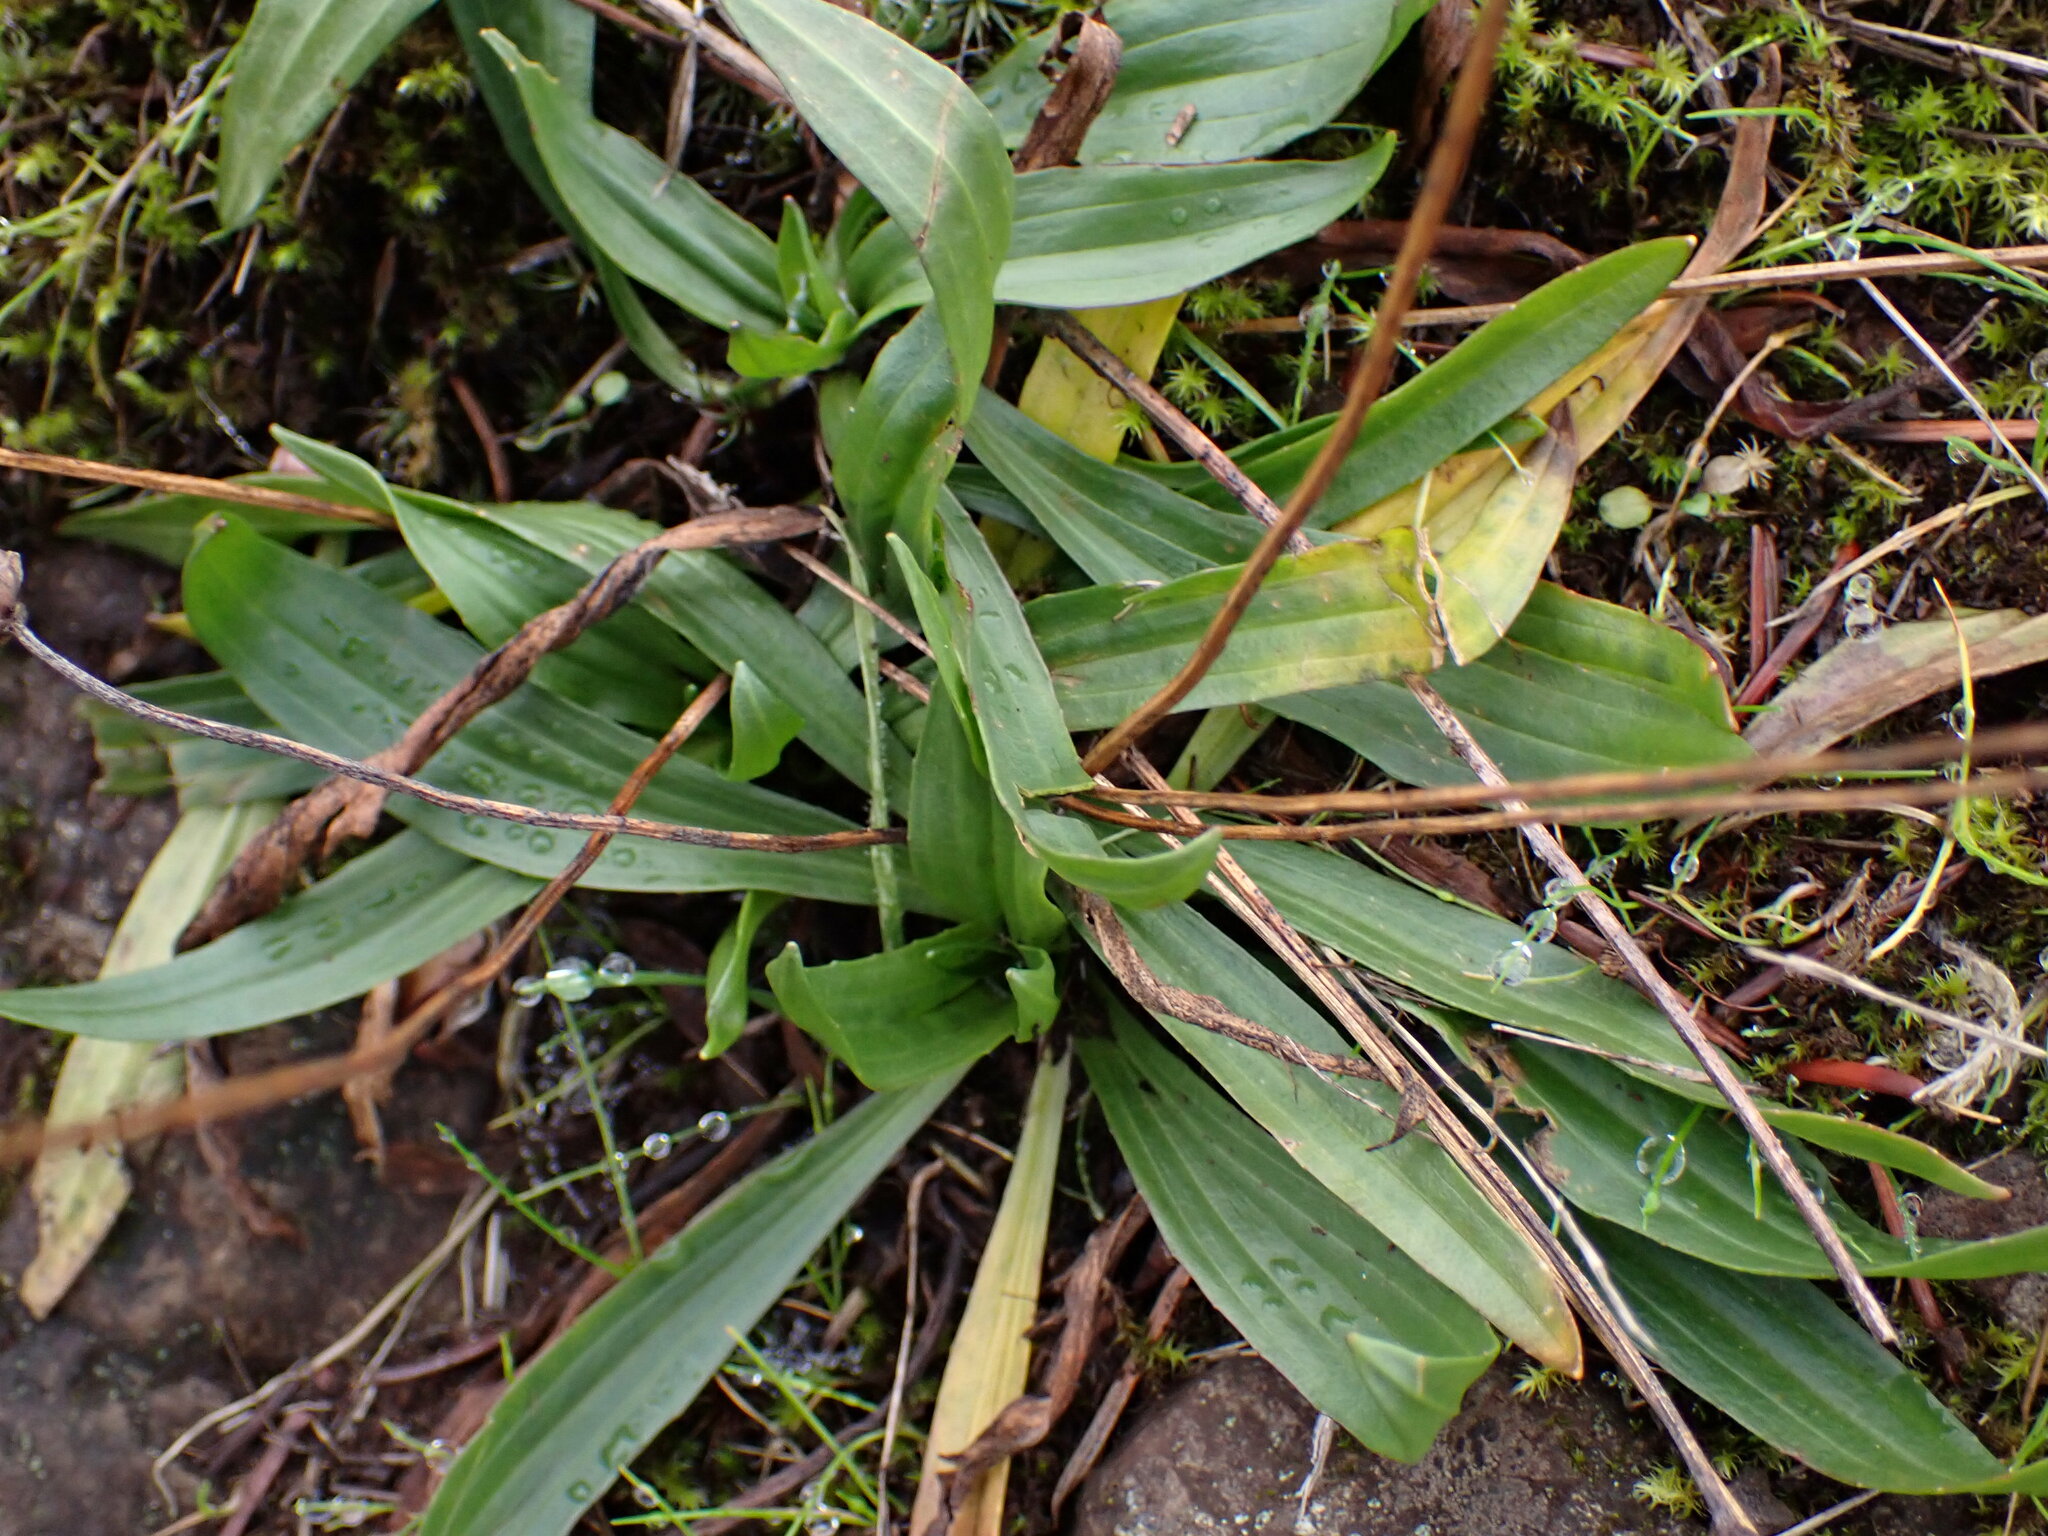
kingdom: Plantae
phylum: Tracheophyta
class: Magnoliopsida
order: Lamiales
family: Plantaginaceae
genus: Plantago
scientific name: Plantago lanceolata
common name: Ribwort plantain
